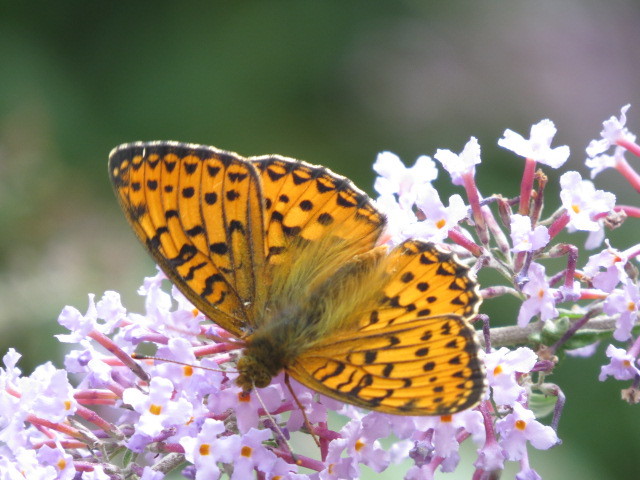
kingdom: Animalia
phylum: Arthropoda
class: Insecta
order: Lepidoptera
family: Nymphalidae
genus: Speyeria
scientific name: Speyeria aglaja
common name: Dark green fritillary
